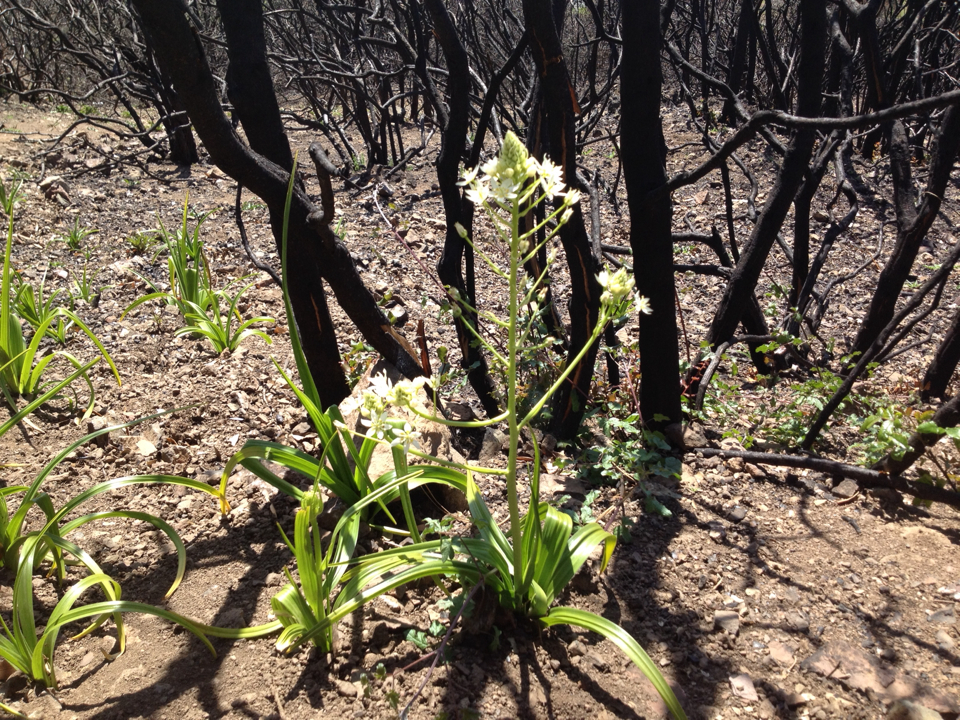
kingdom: Plantae
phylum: Tracheophyta
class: Liliopsida
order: Liliales
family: Melanthiaceae
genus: Toxicoscordion
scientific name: Toxicoscordion fremontii
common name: Fremont's death camas
